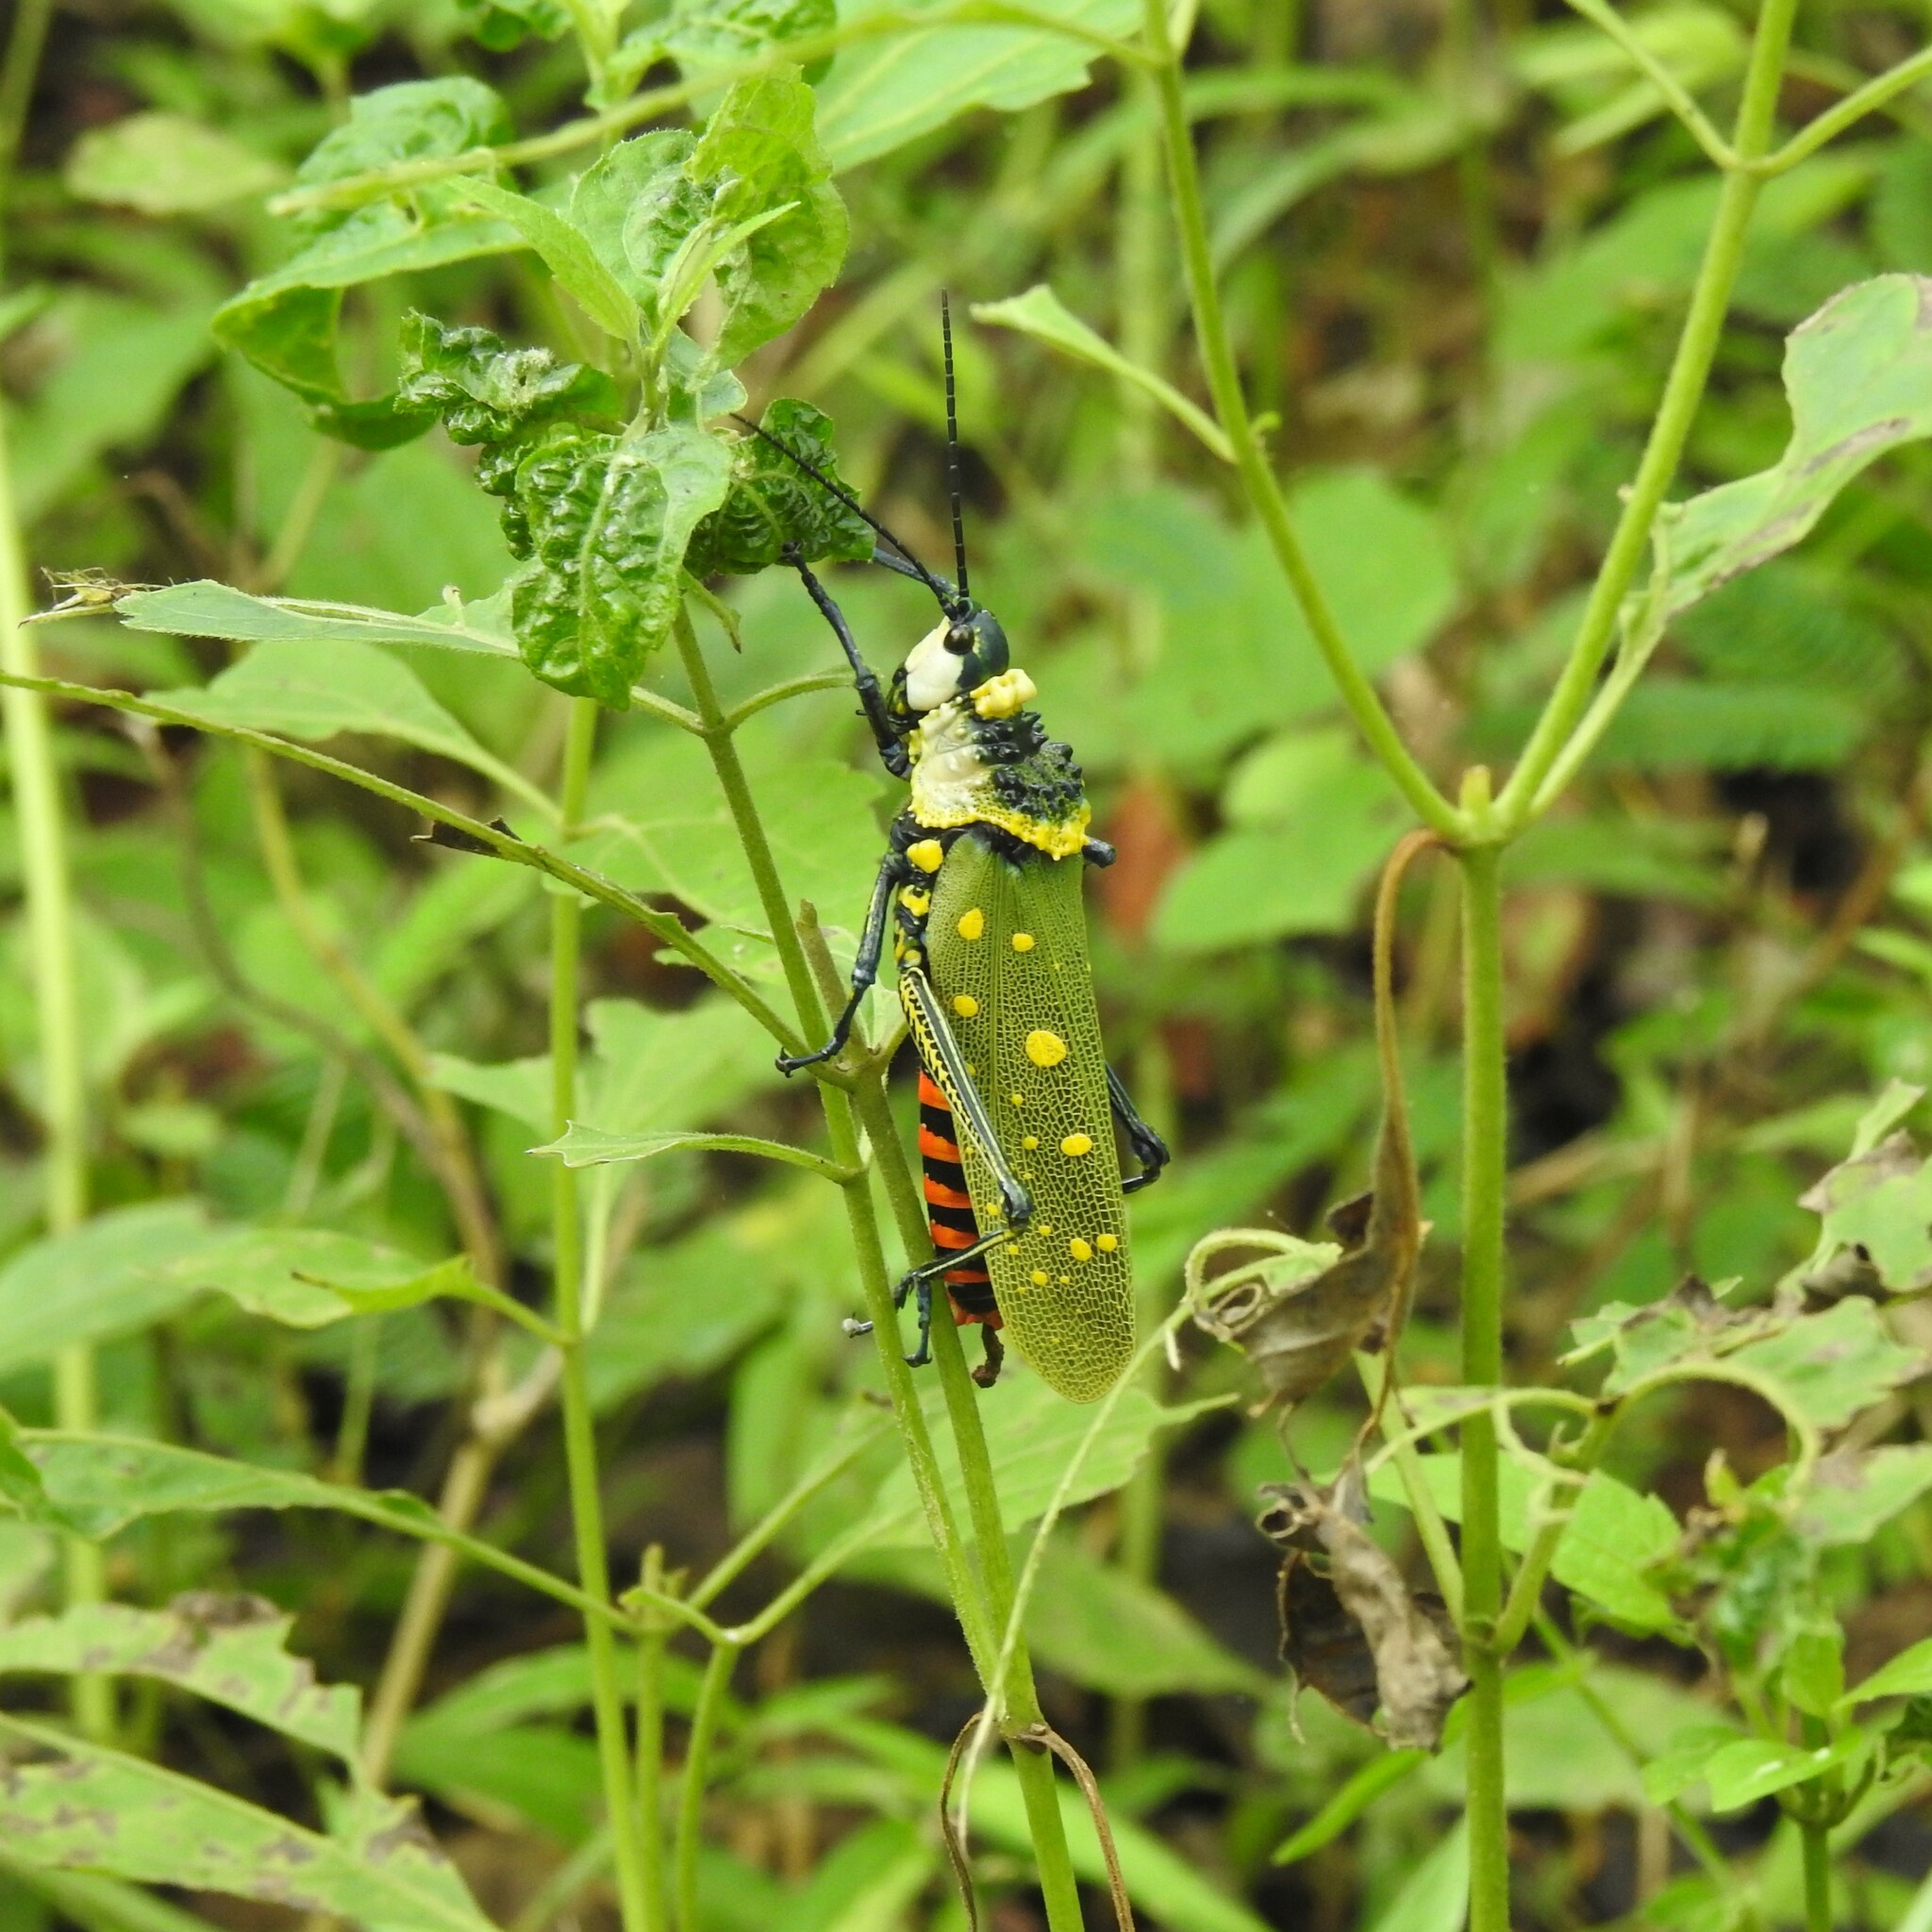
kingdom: Animalia
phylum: Arthropoda
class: Insecta
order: Orthoptera
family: Pyrgomorphidae
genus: Aularches
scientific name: Aularches miliaris
